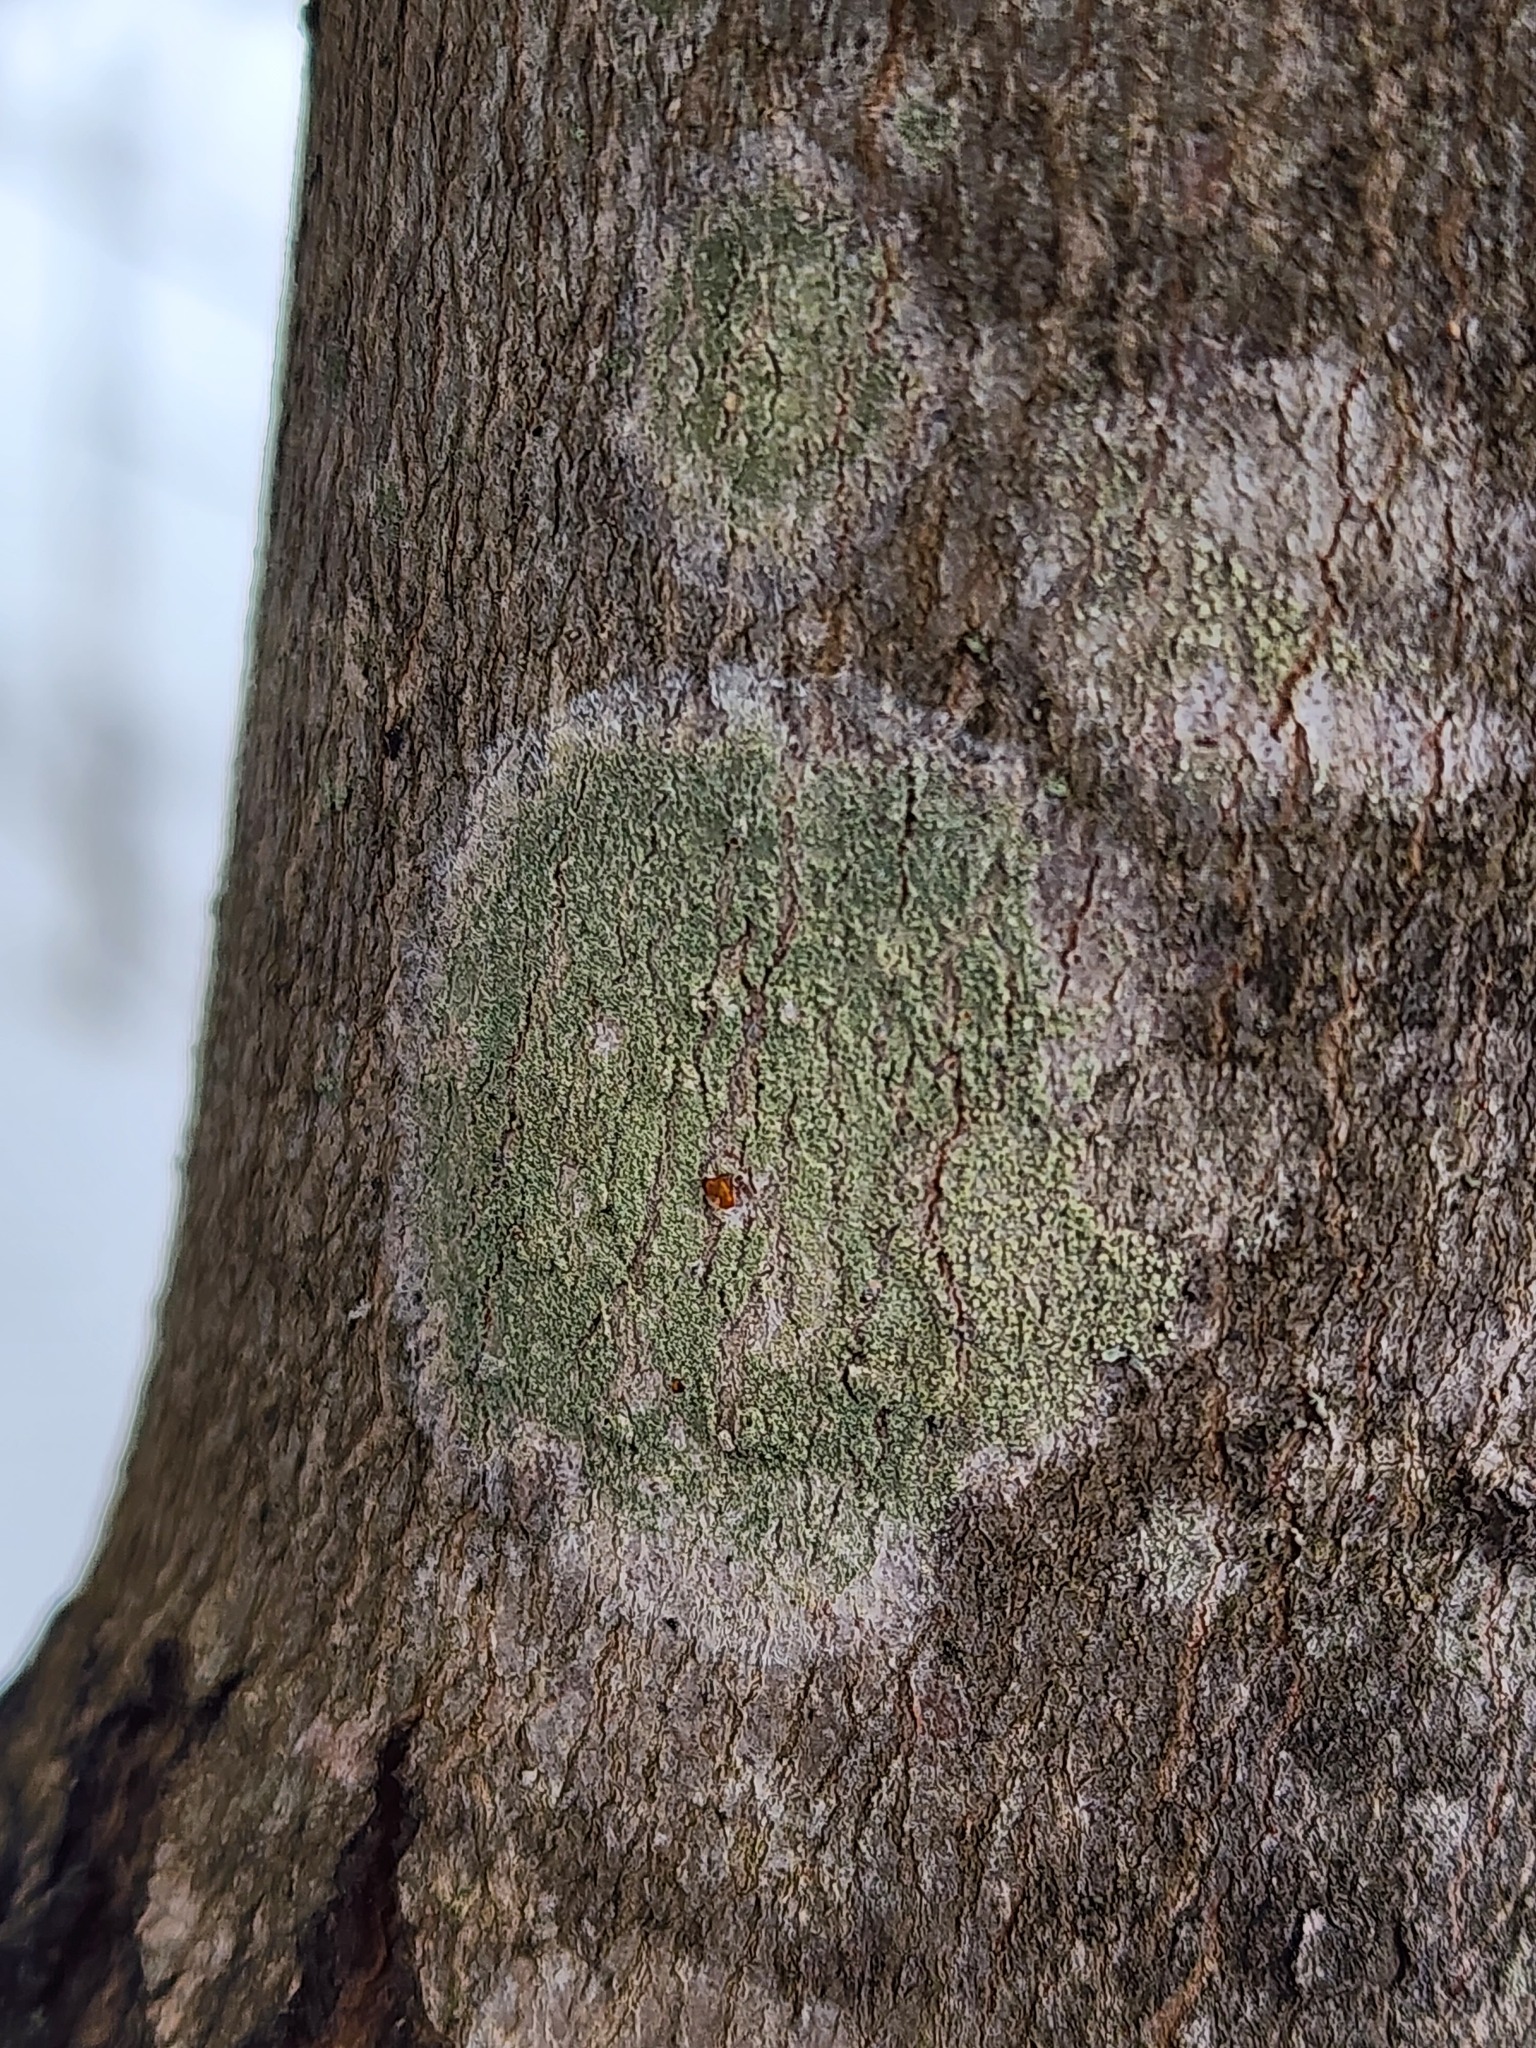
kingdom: Fungi
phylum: Ascomycota
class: Lecanoromycetes
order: Pertusariales
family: Pertusariaceae
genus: Verseghya
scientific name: Verseghya thysanophora
